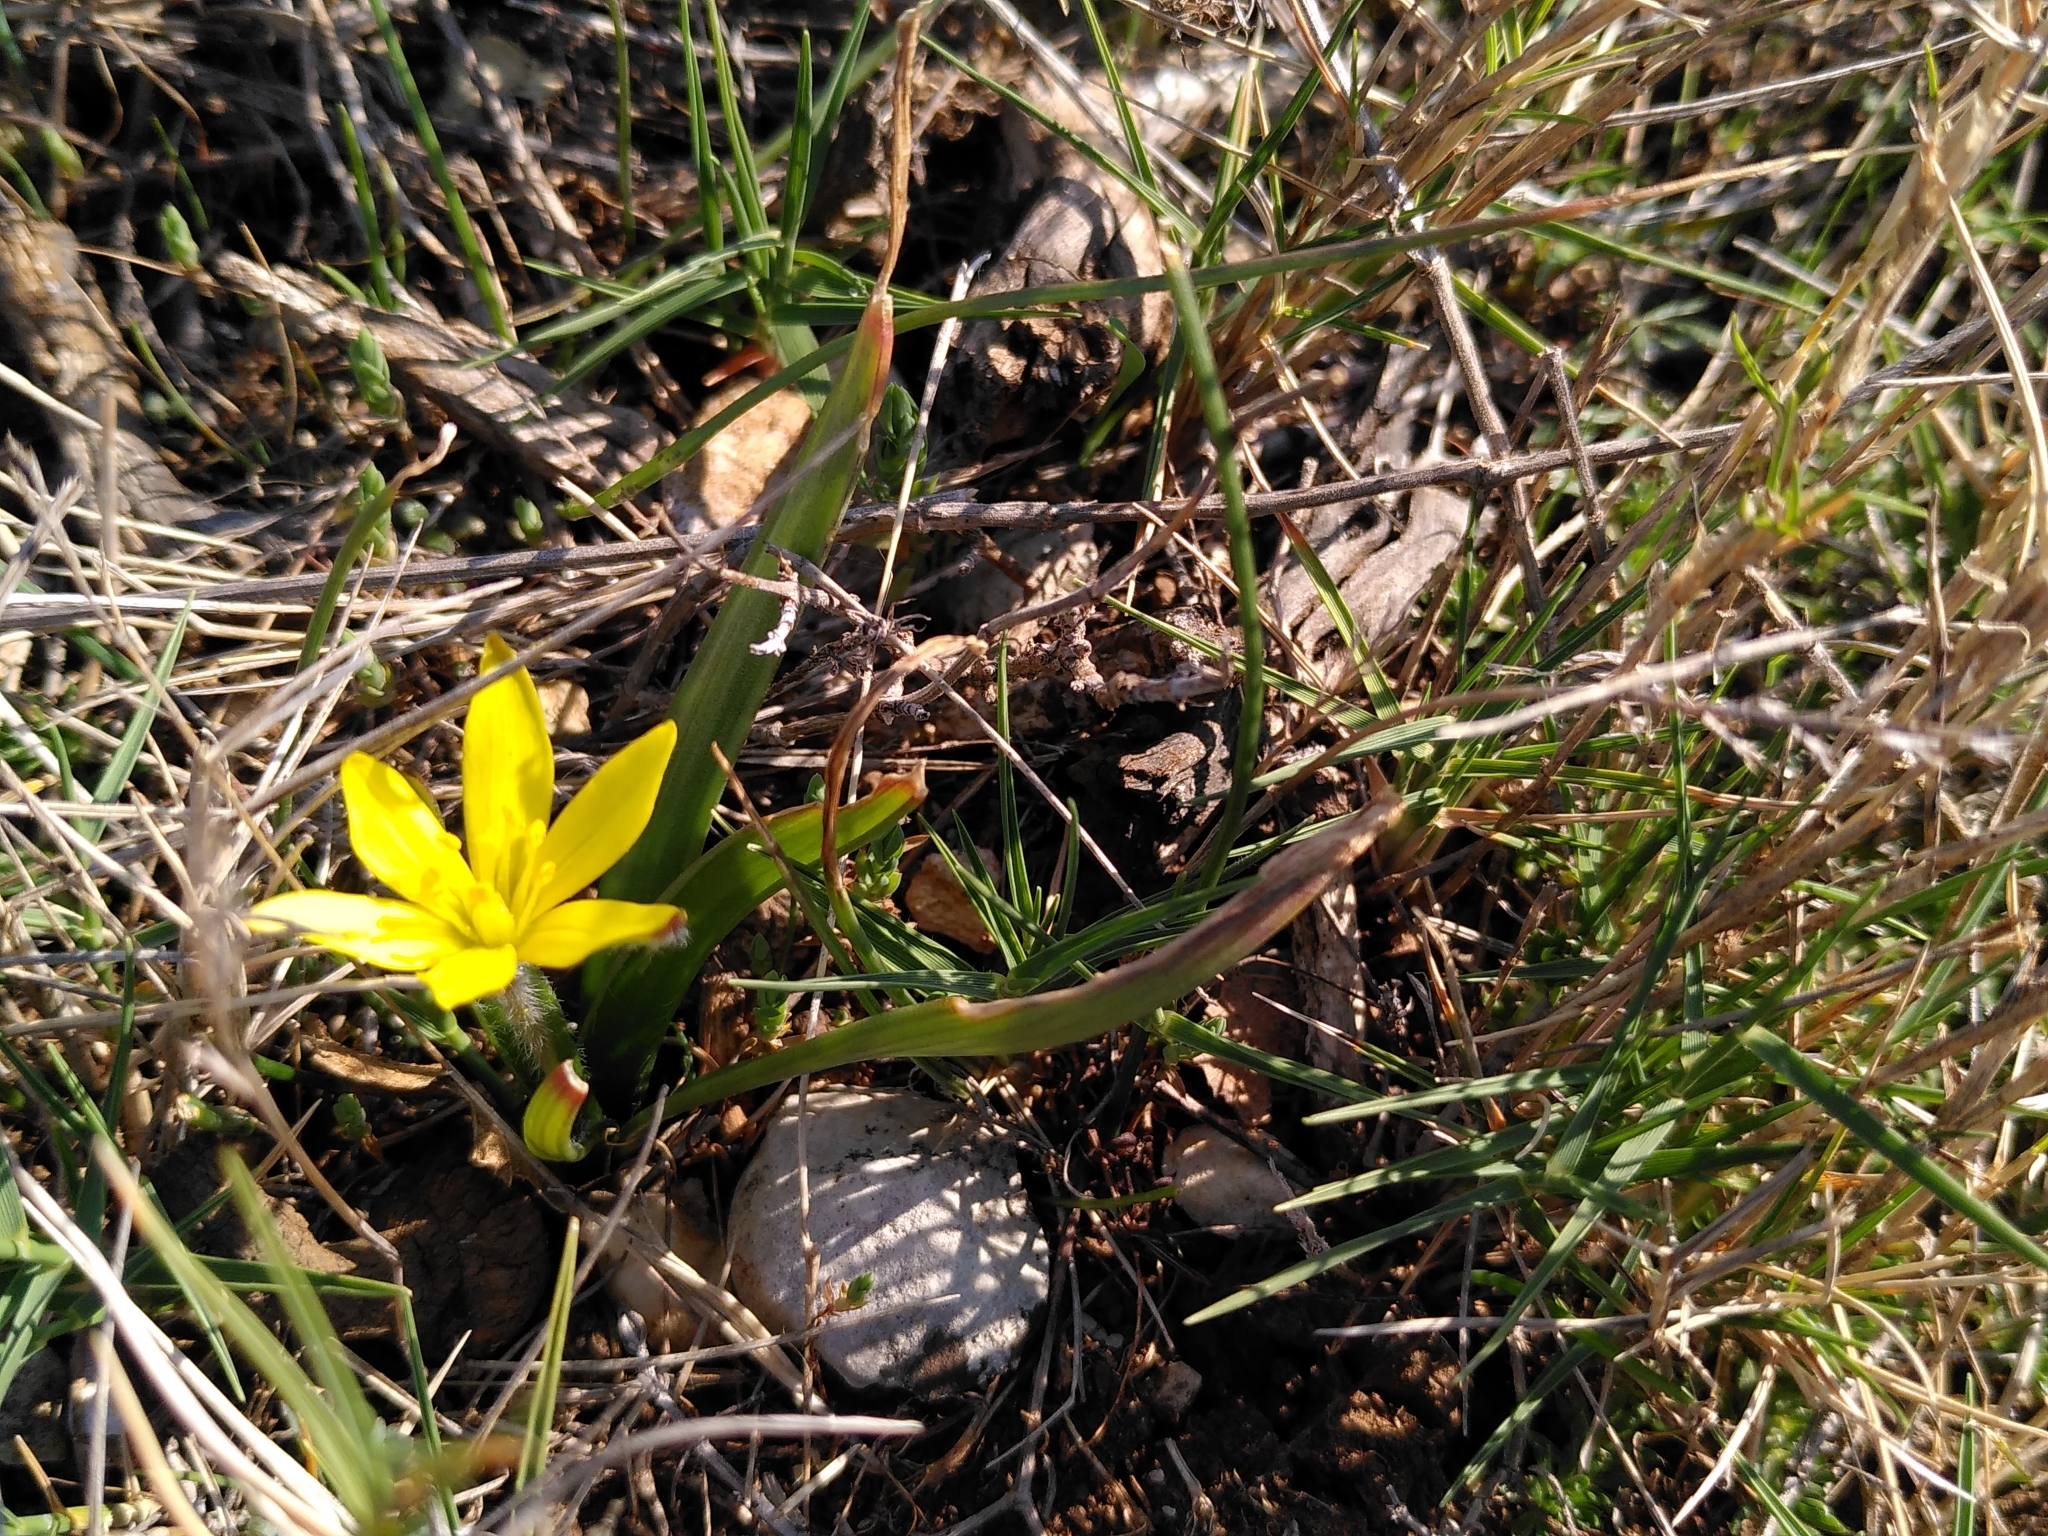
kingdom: Plantae
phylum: Tracheophyta
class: Liliopsida
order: Liliales
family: Liliaceae
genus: Gagea
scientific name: Gagea lacaitae
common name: Gagée de lacaita
